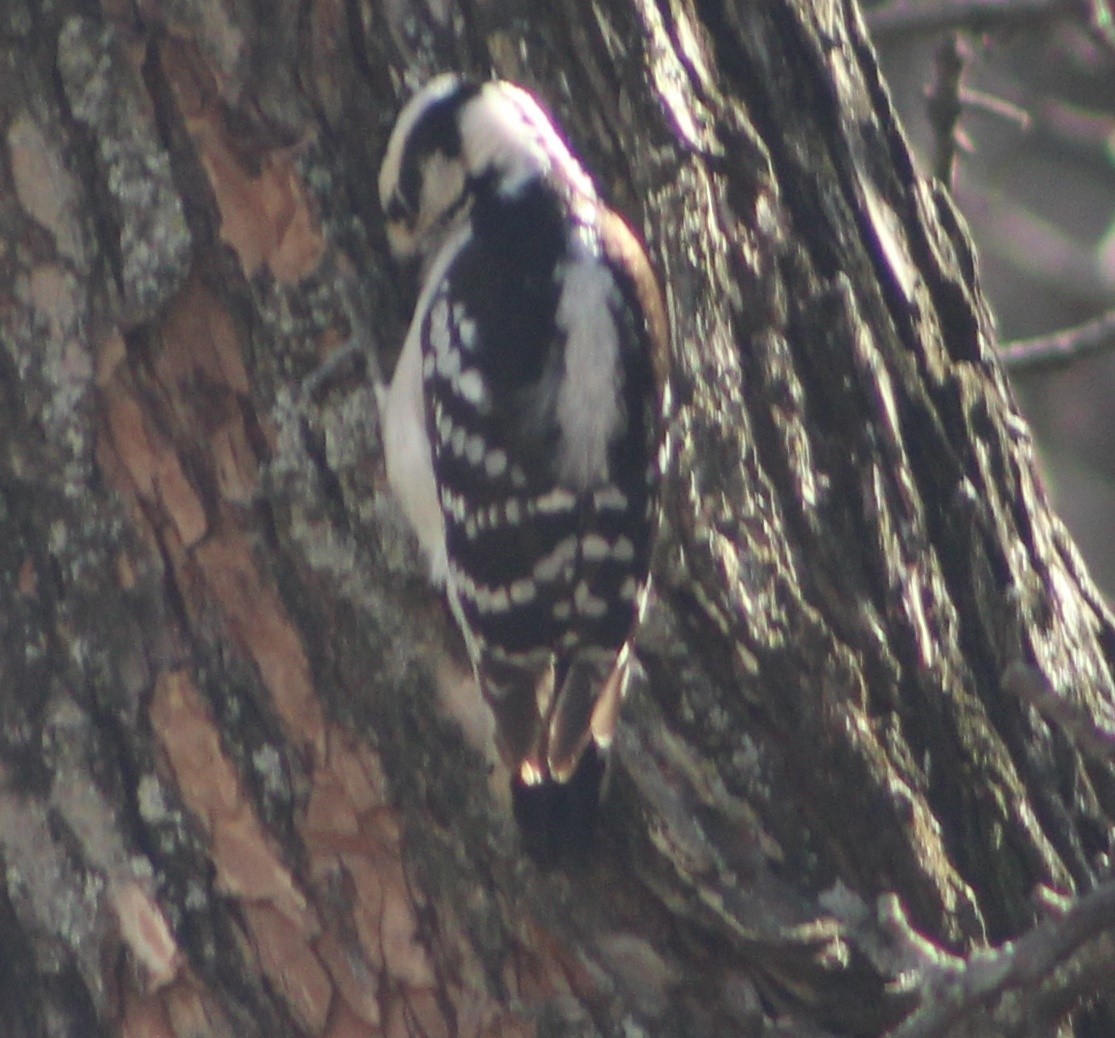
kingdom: Animalia
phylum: Chordata
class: Aves
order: Piciformes
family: Picidae
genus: Dryobates
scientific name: Dryobates pubescens
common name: Downy woodpecker
